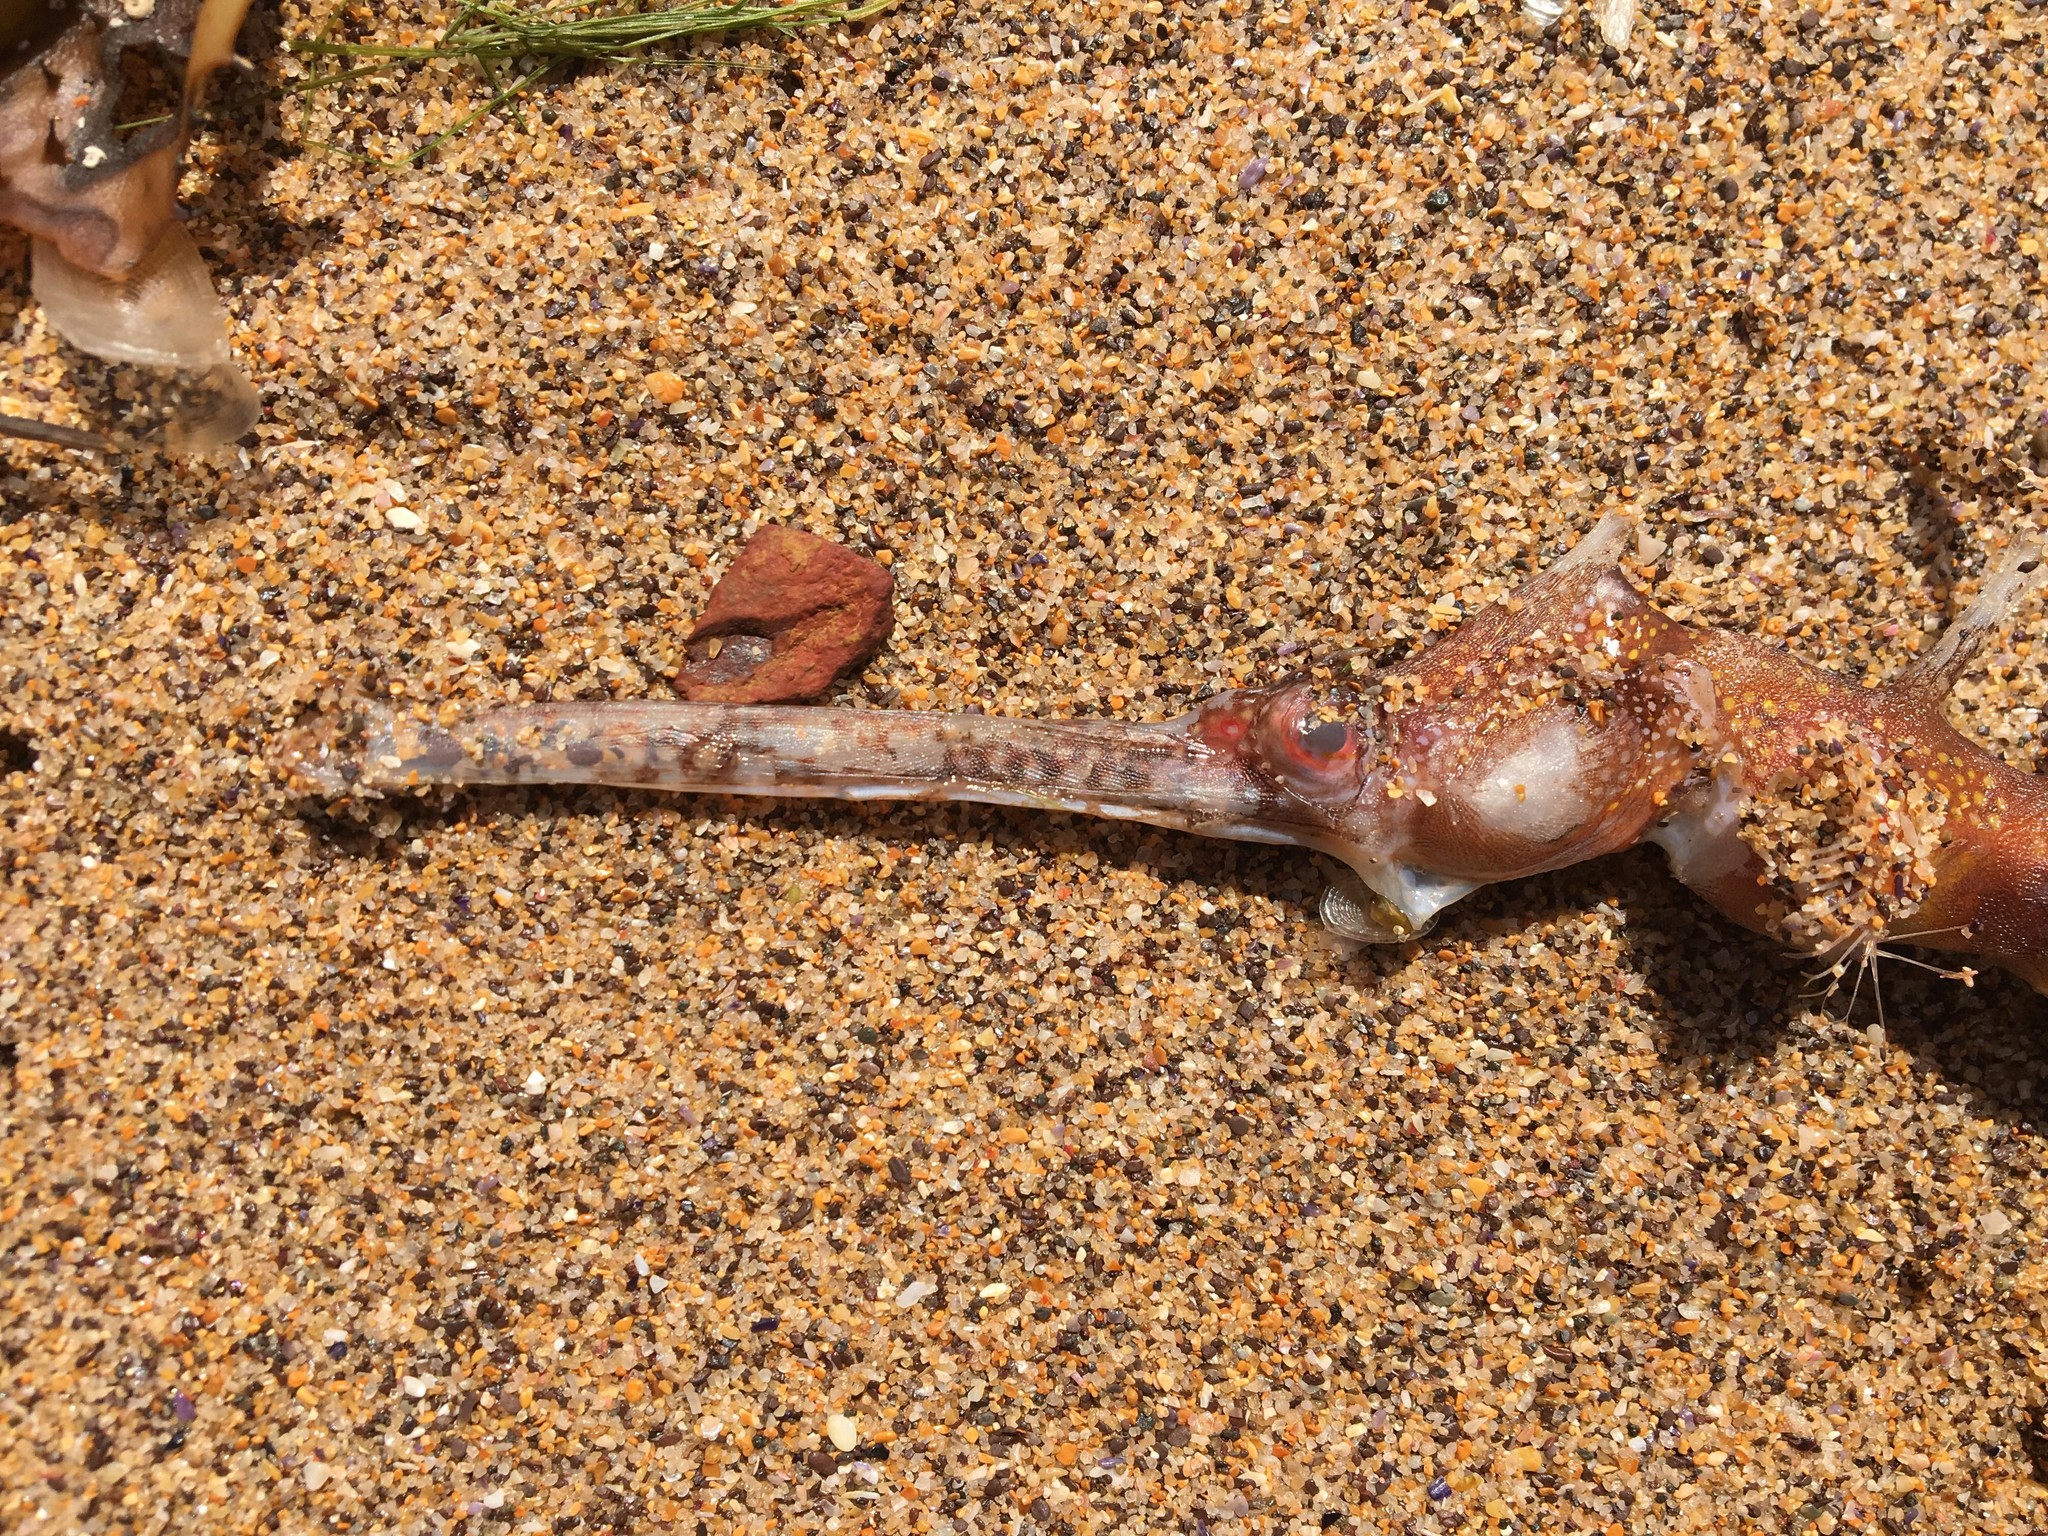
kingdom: Animalia
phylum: Chordata
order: Syngnathiformes
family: Syngnathidae
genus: Phyllopteryx
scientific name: Phyllopteryx taeniolatus
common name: Common seadragon
